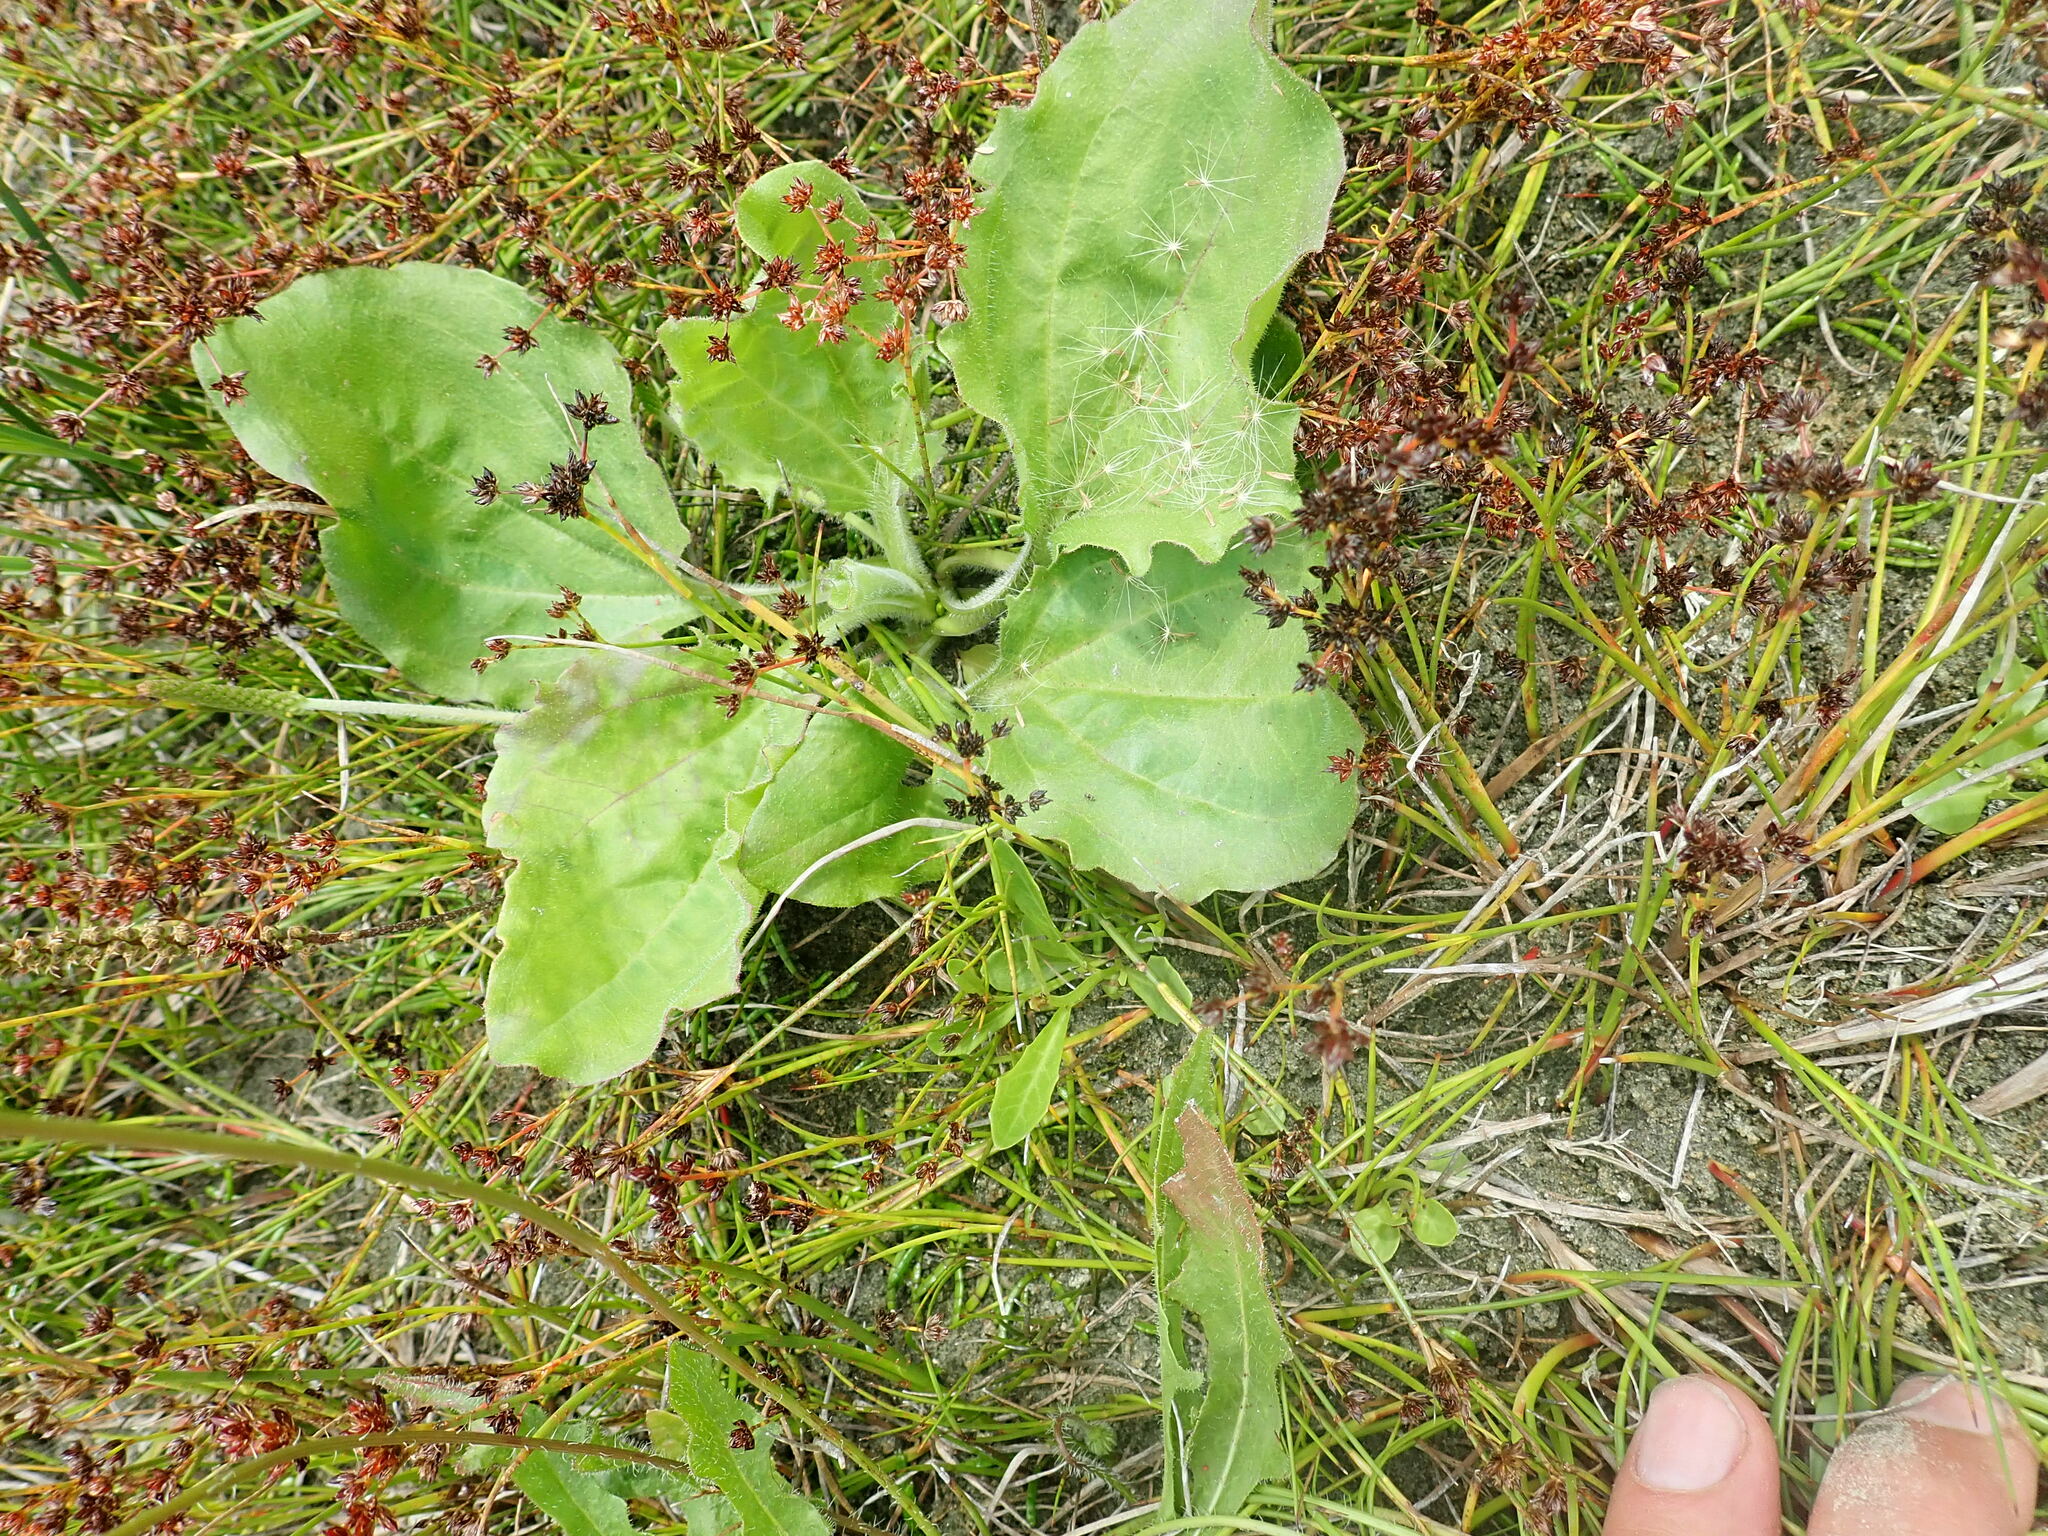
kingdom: Plantae
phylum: Tracheophyta
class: Magnoliopsida
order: Lamiales
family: Plantaginaceae
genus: Plantago
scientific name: Plantago major
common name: Common plantain
